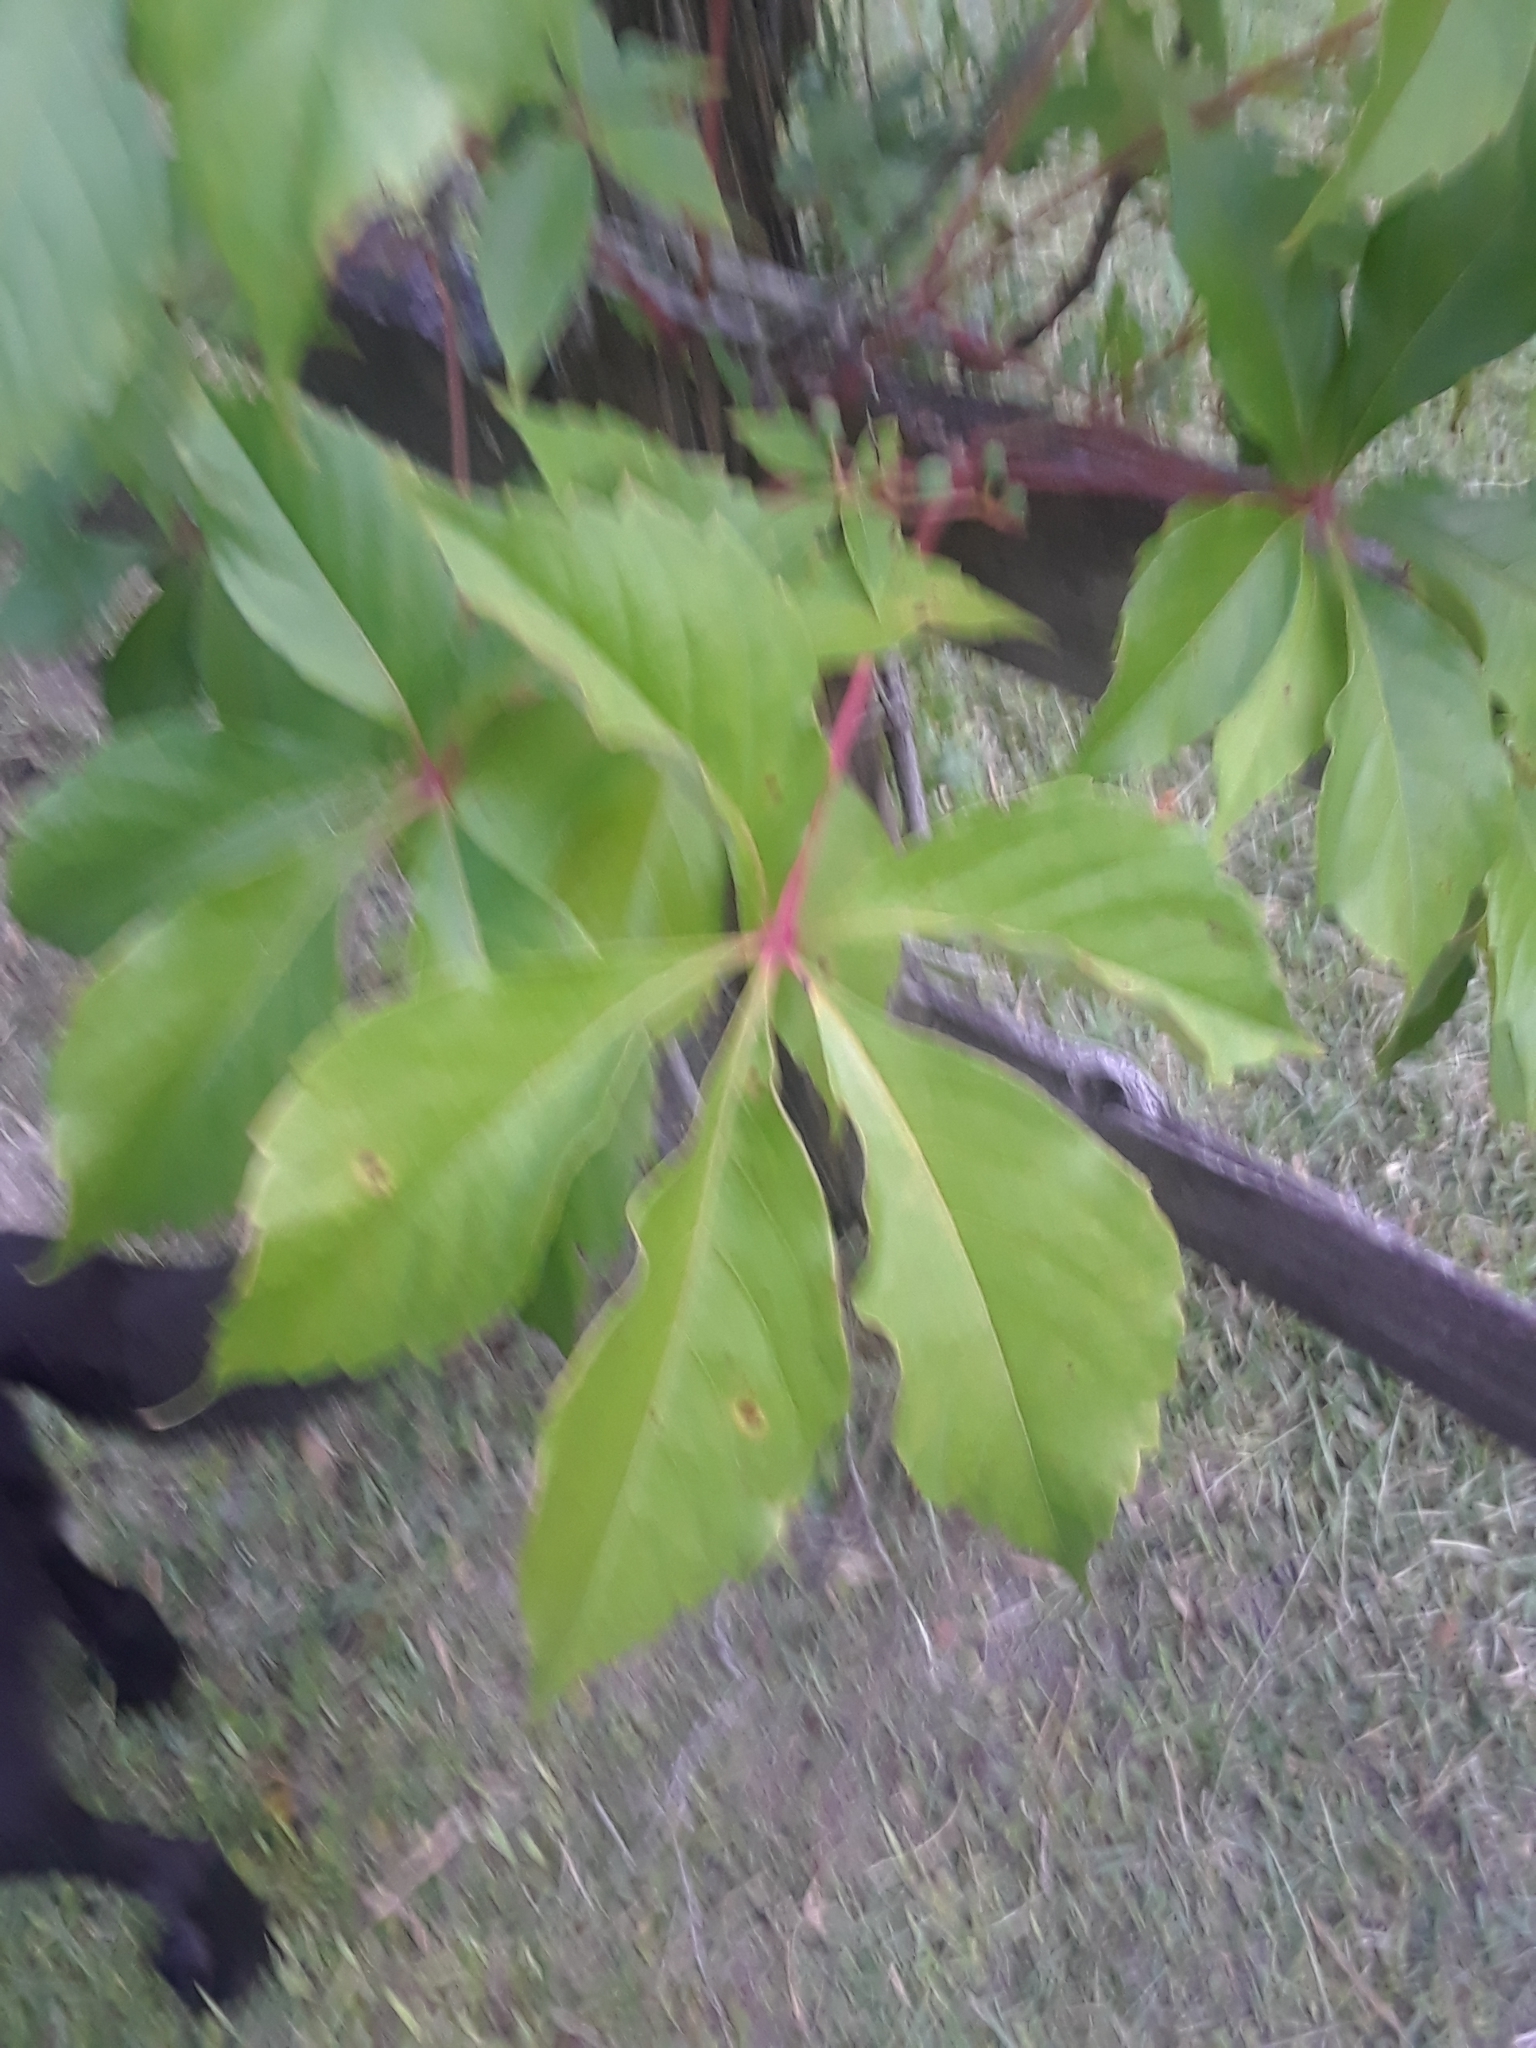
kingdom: Plantae
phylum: Tracheophyta
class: Magnoliopsida
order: Vitales
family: Vitaceae
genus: Parthenocissus
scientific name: Parthenocissus quinquefolia
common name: Virginia-creeper
